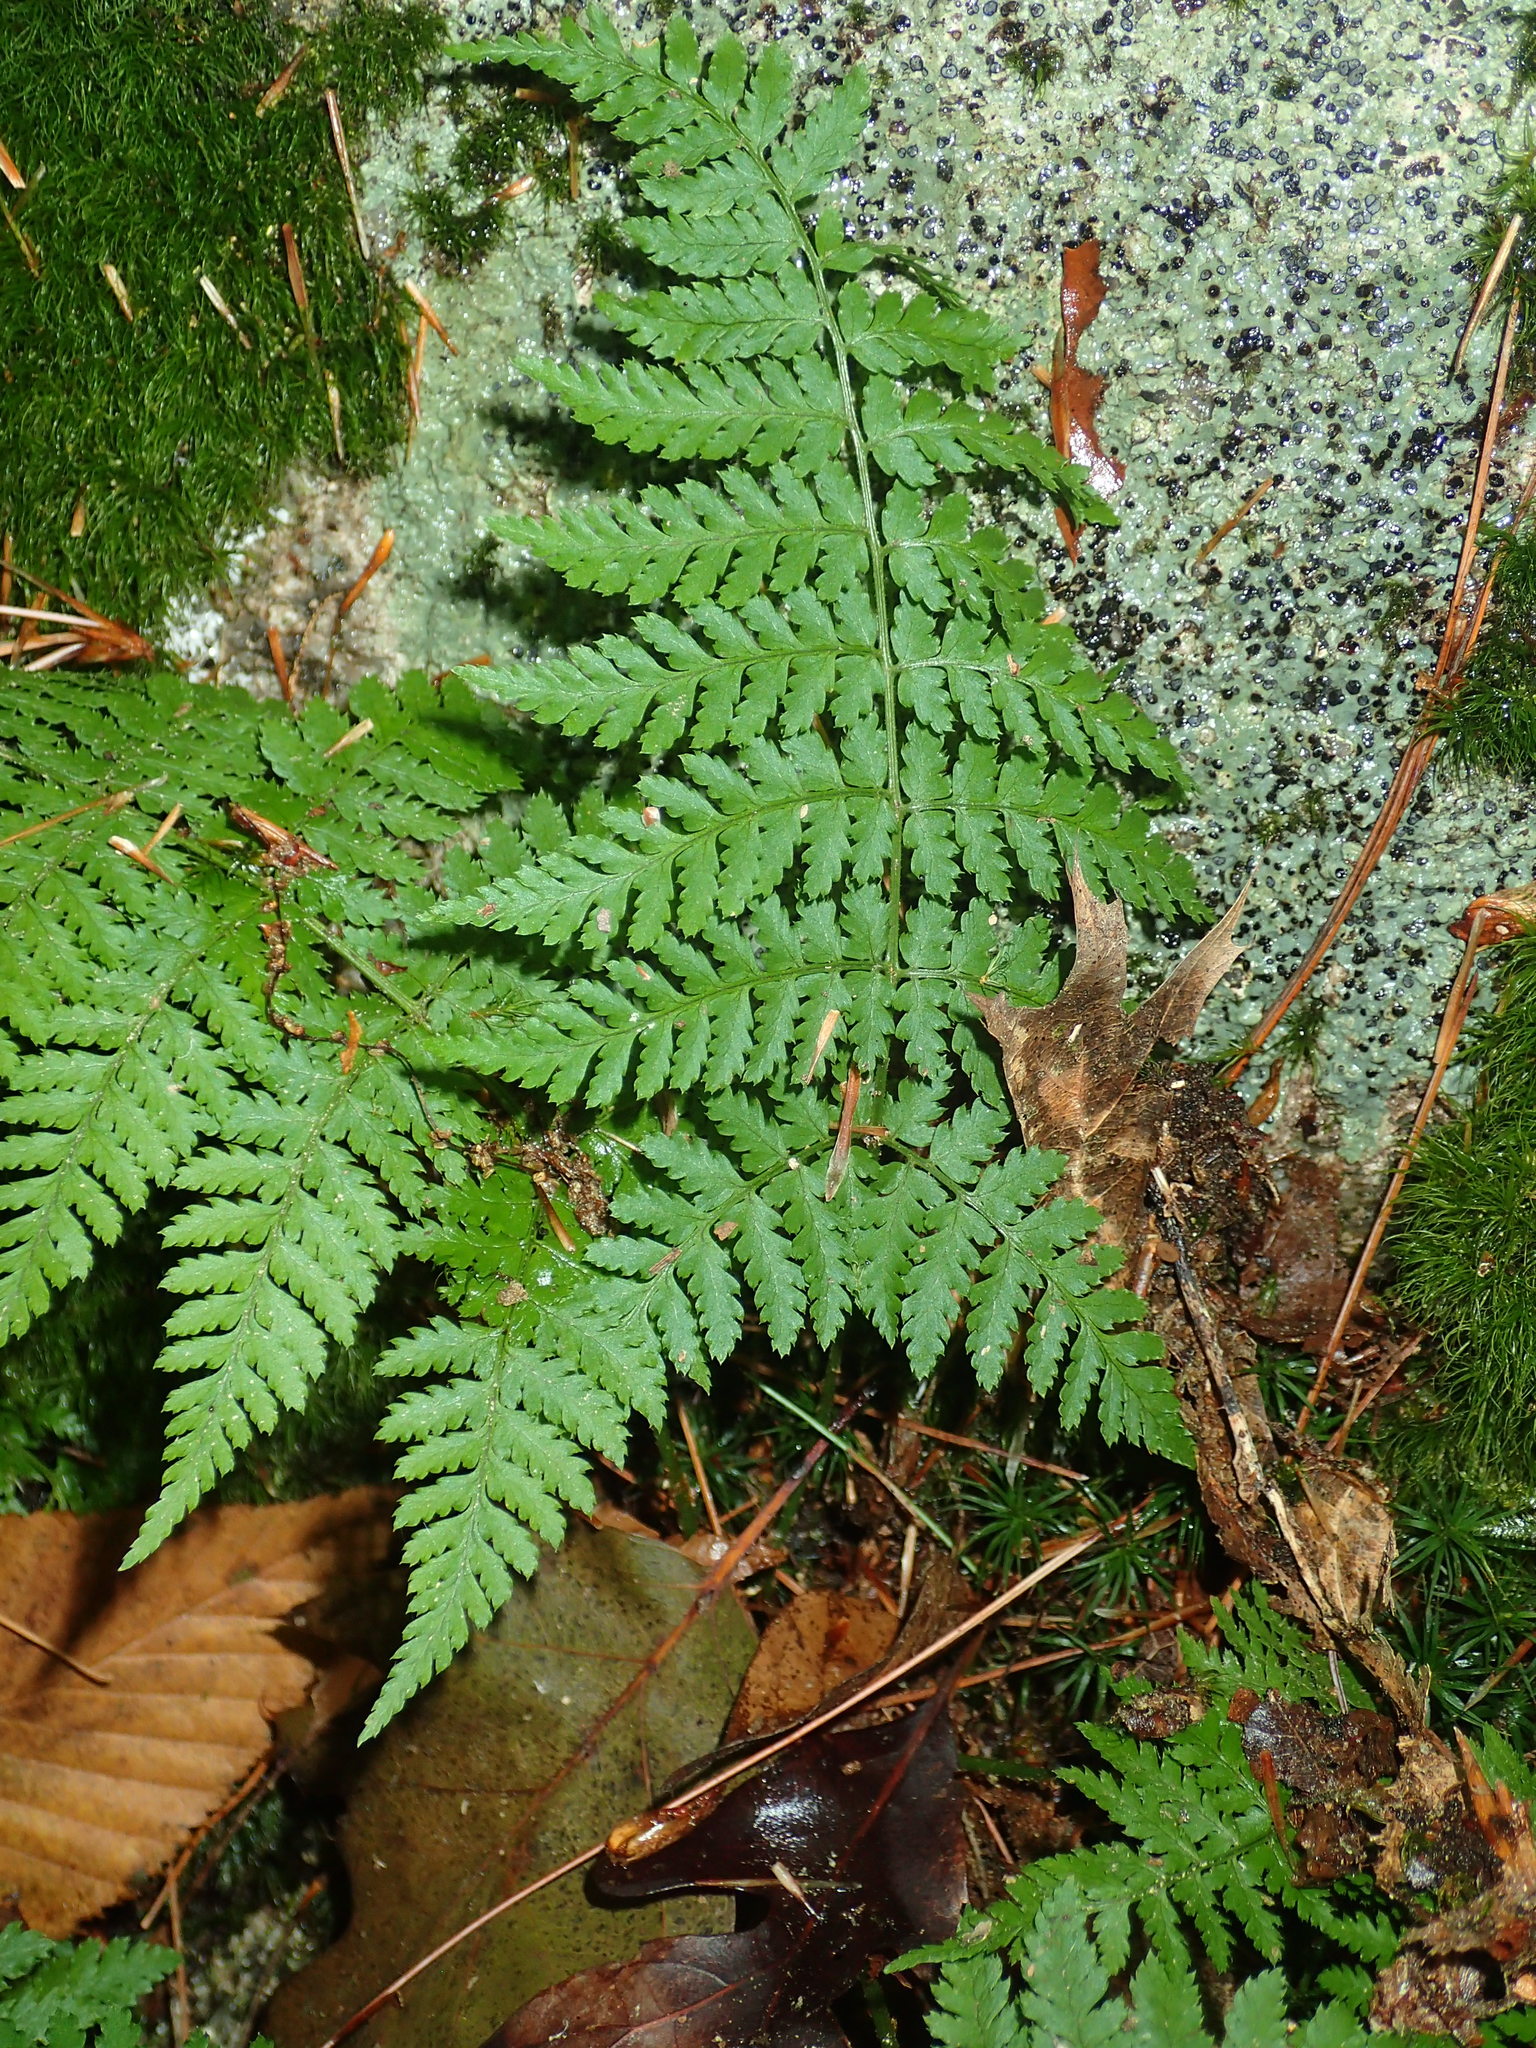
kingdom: Plantae
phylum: Tracheophyta
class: Polypodiopsida
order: Polypodiales
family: Dryopteridaceae
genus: Dryopteris
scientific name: Dryopteris intermedia
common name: Evergreen wood fern
